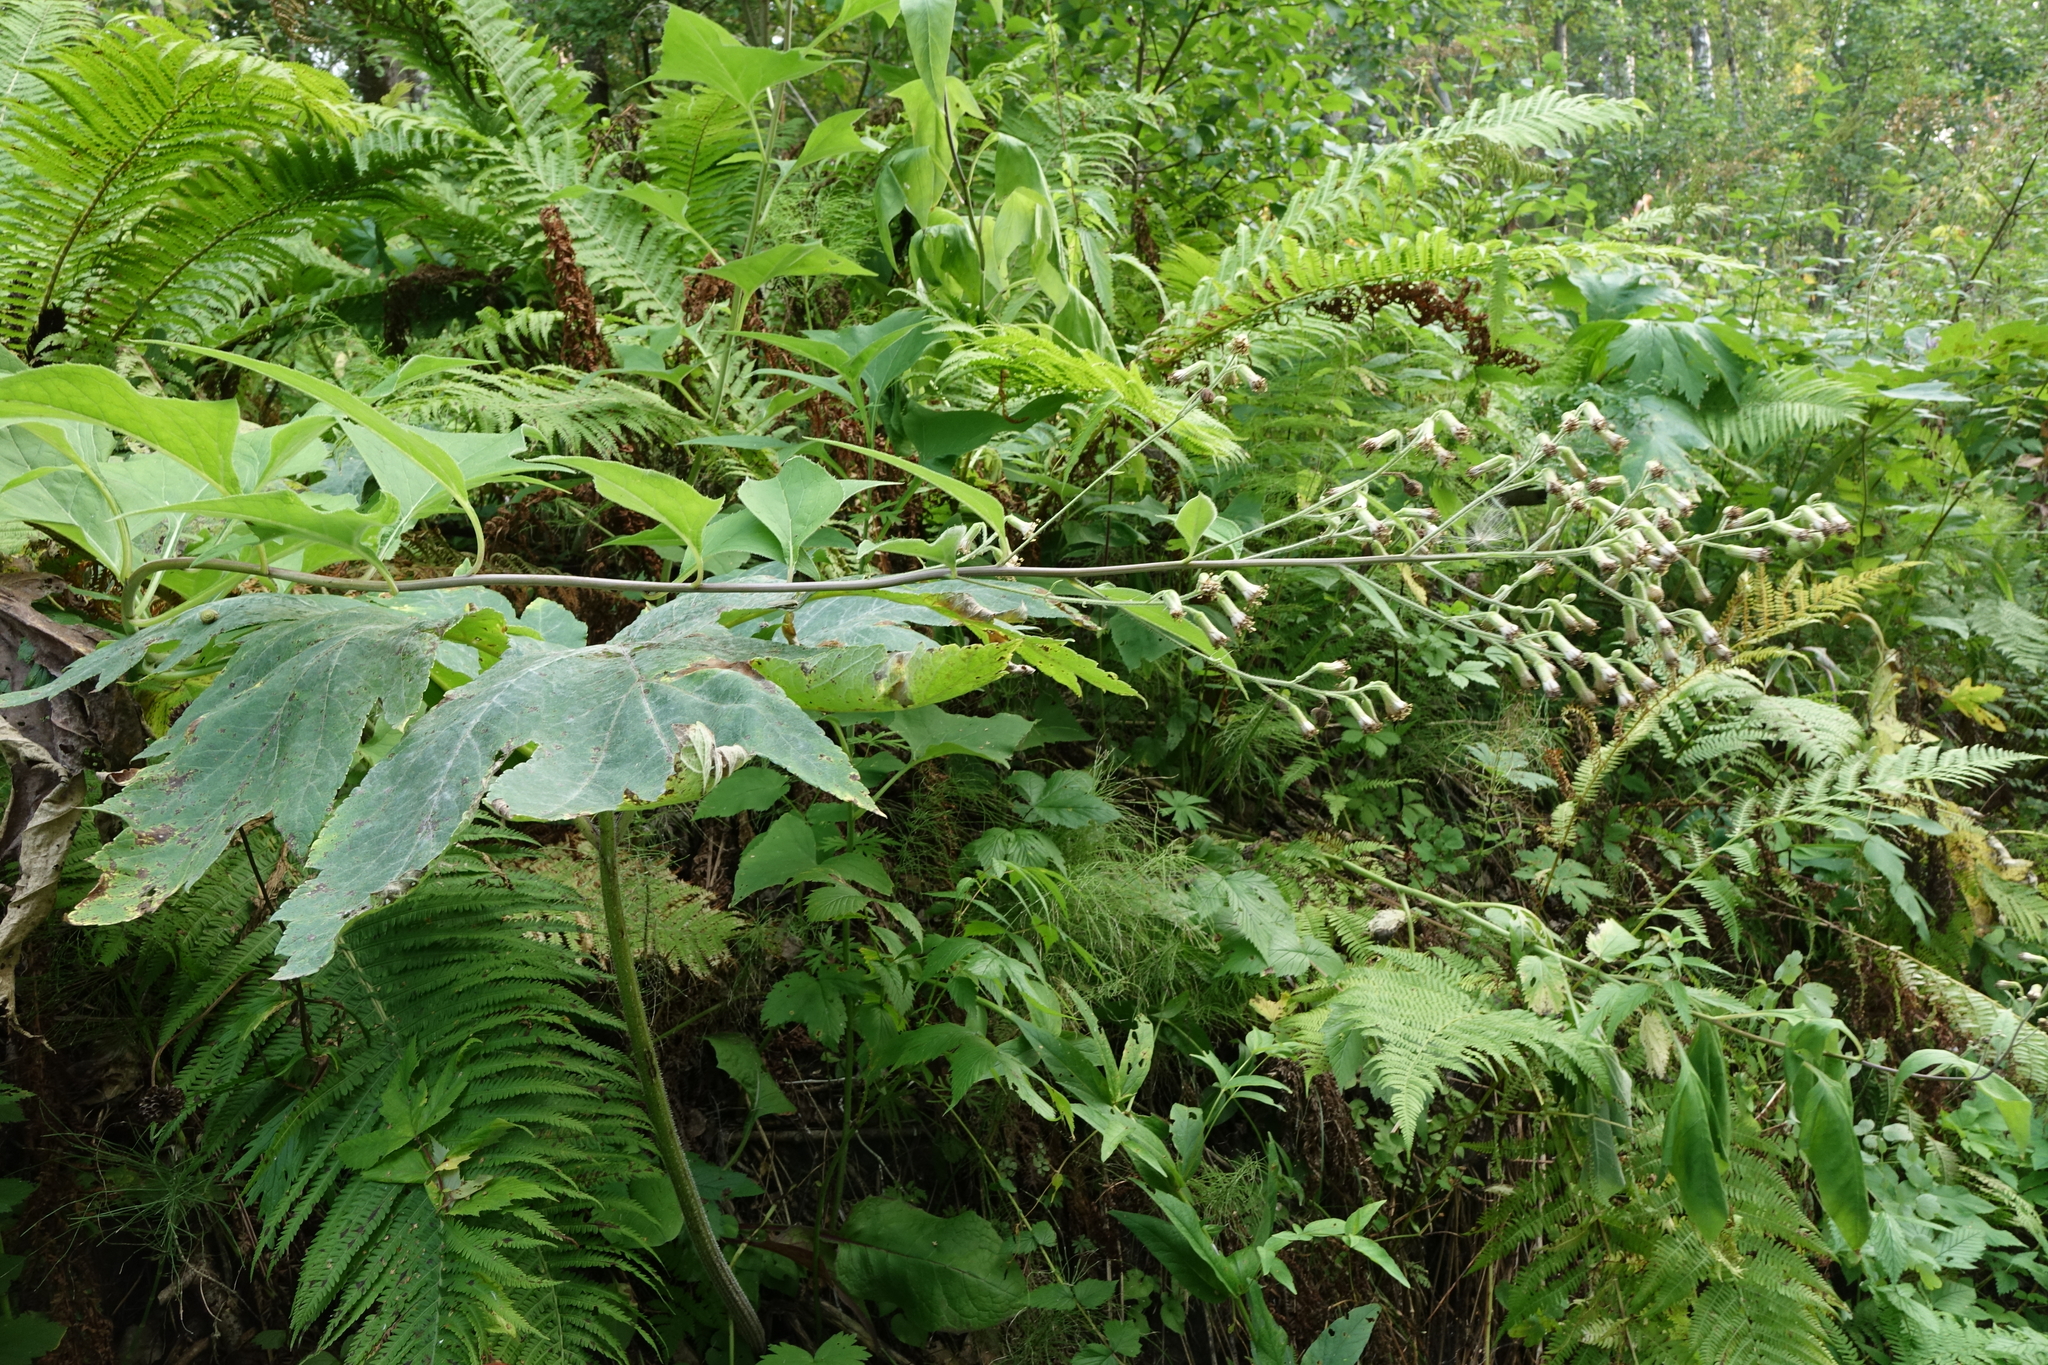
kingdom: Plantae
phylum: Tracheophyta
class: Magnoliopsida
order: Asterales
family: Asteraceae
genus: Parasenecio
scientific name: Parasenecio hastatus
